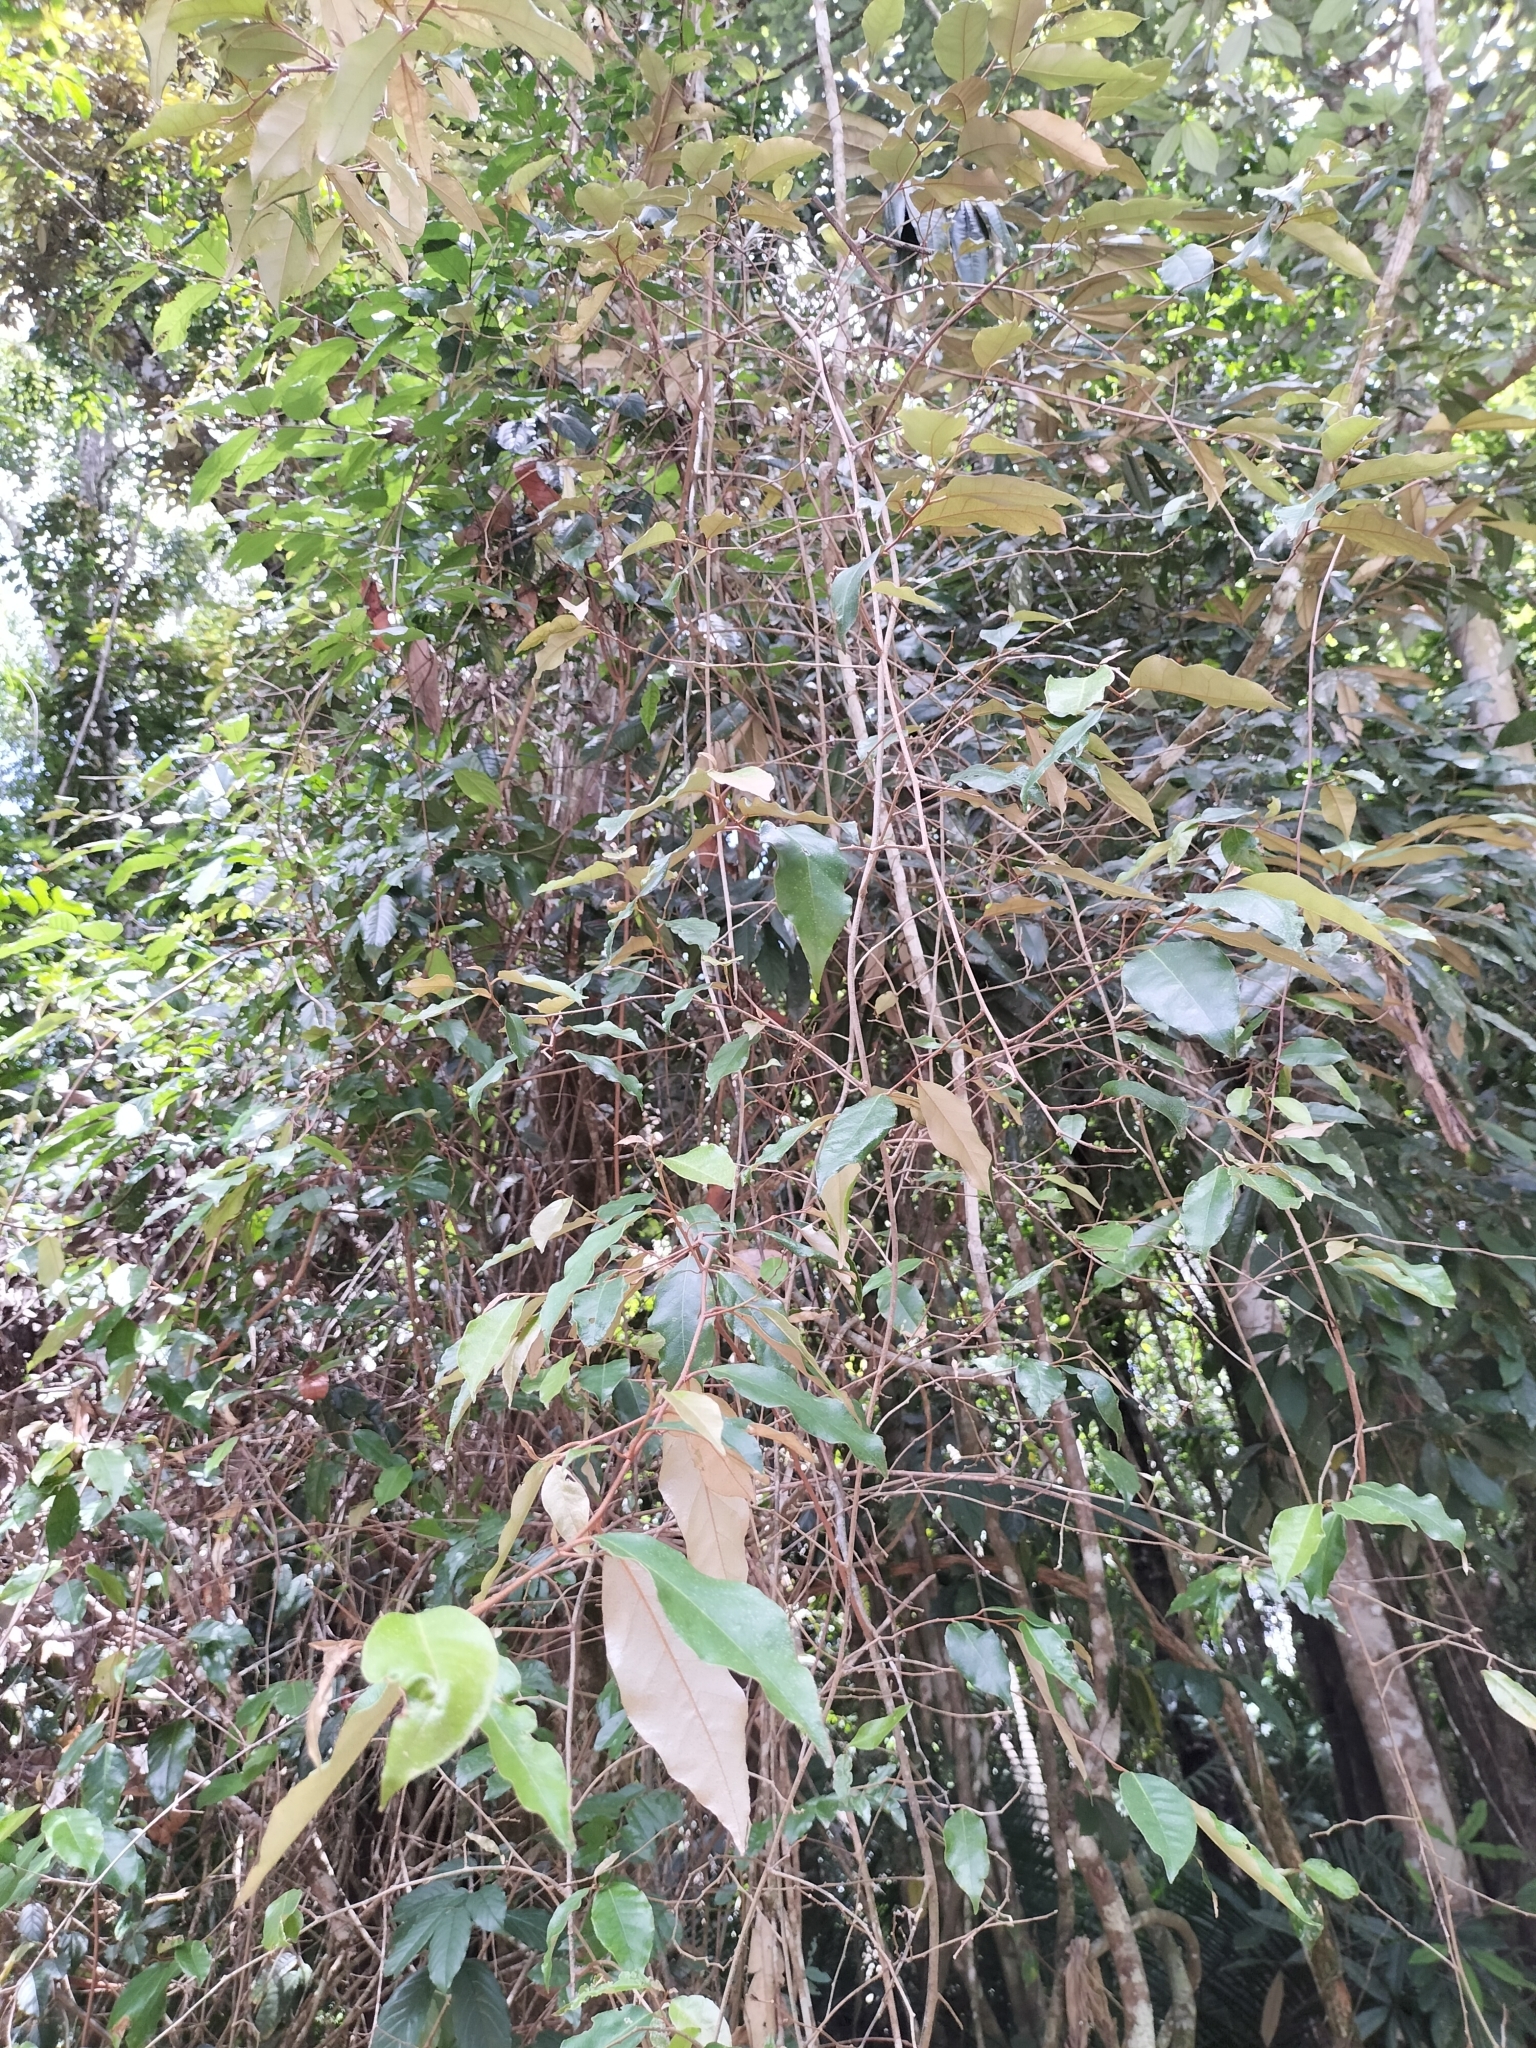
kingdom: Plantae
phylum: Tracheophyta
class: Magnoliopsida
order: Rosales
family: Elaeagnaceae
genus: Elaeagnus
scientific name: Elaeagnus triflora
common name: Millaa millaa-vine
